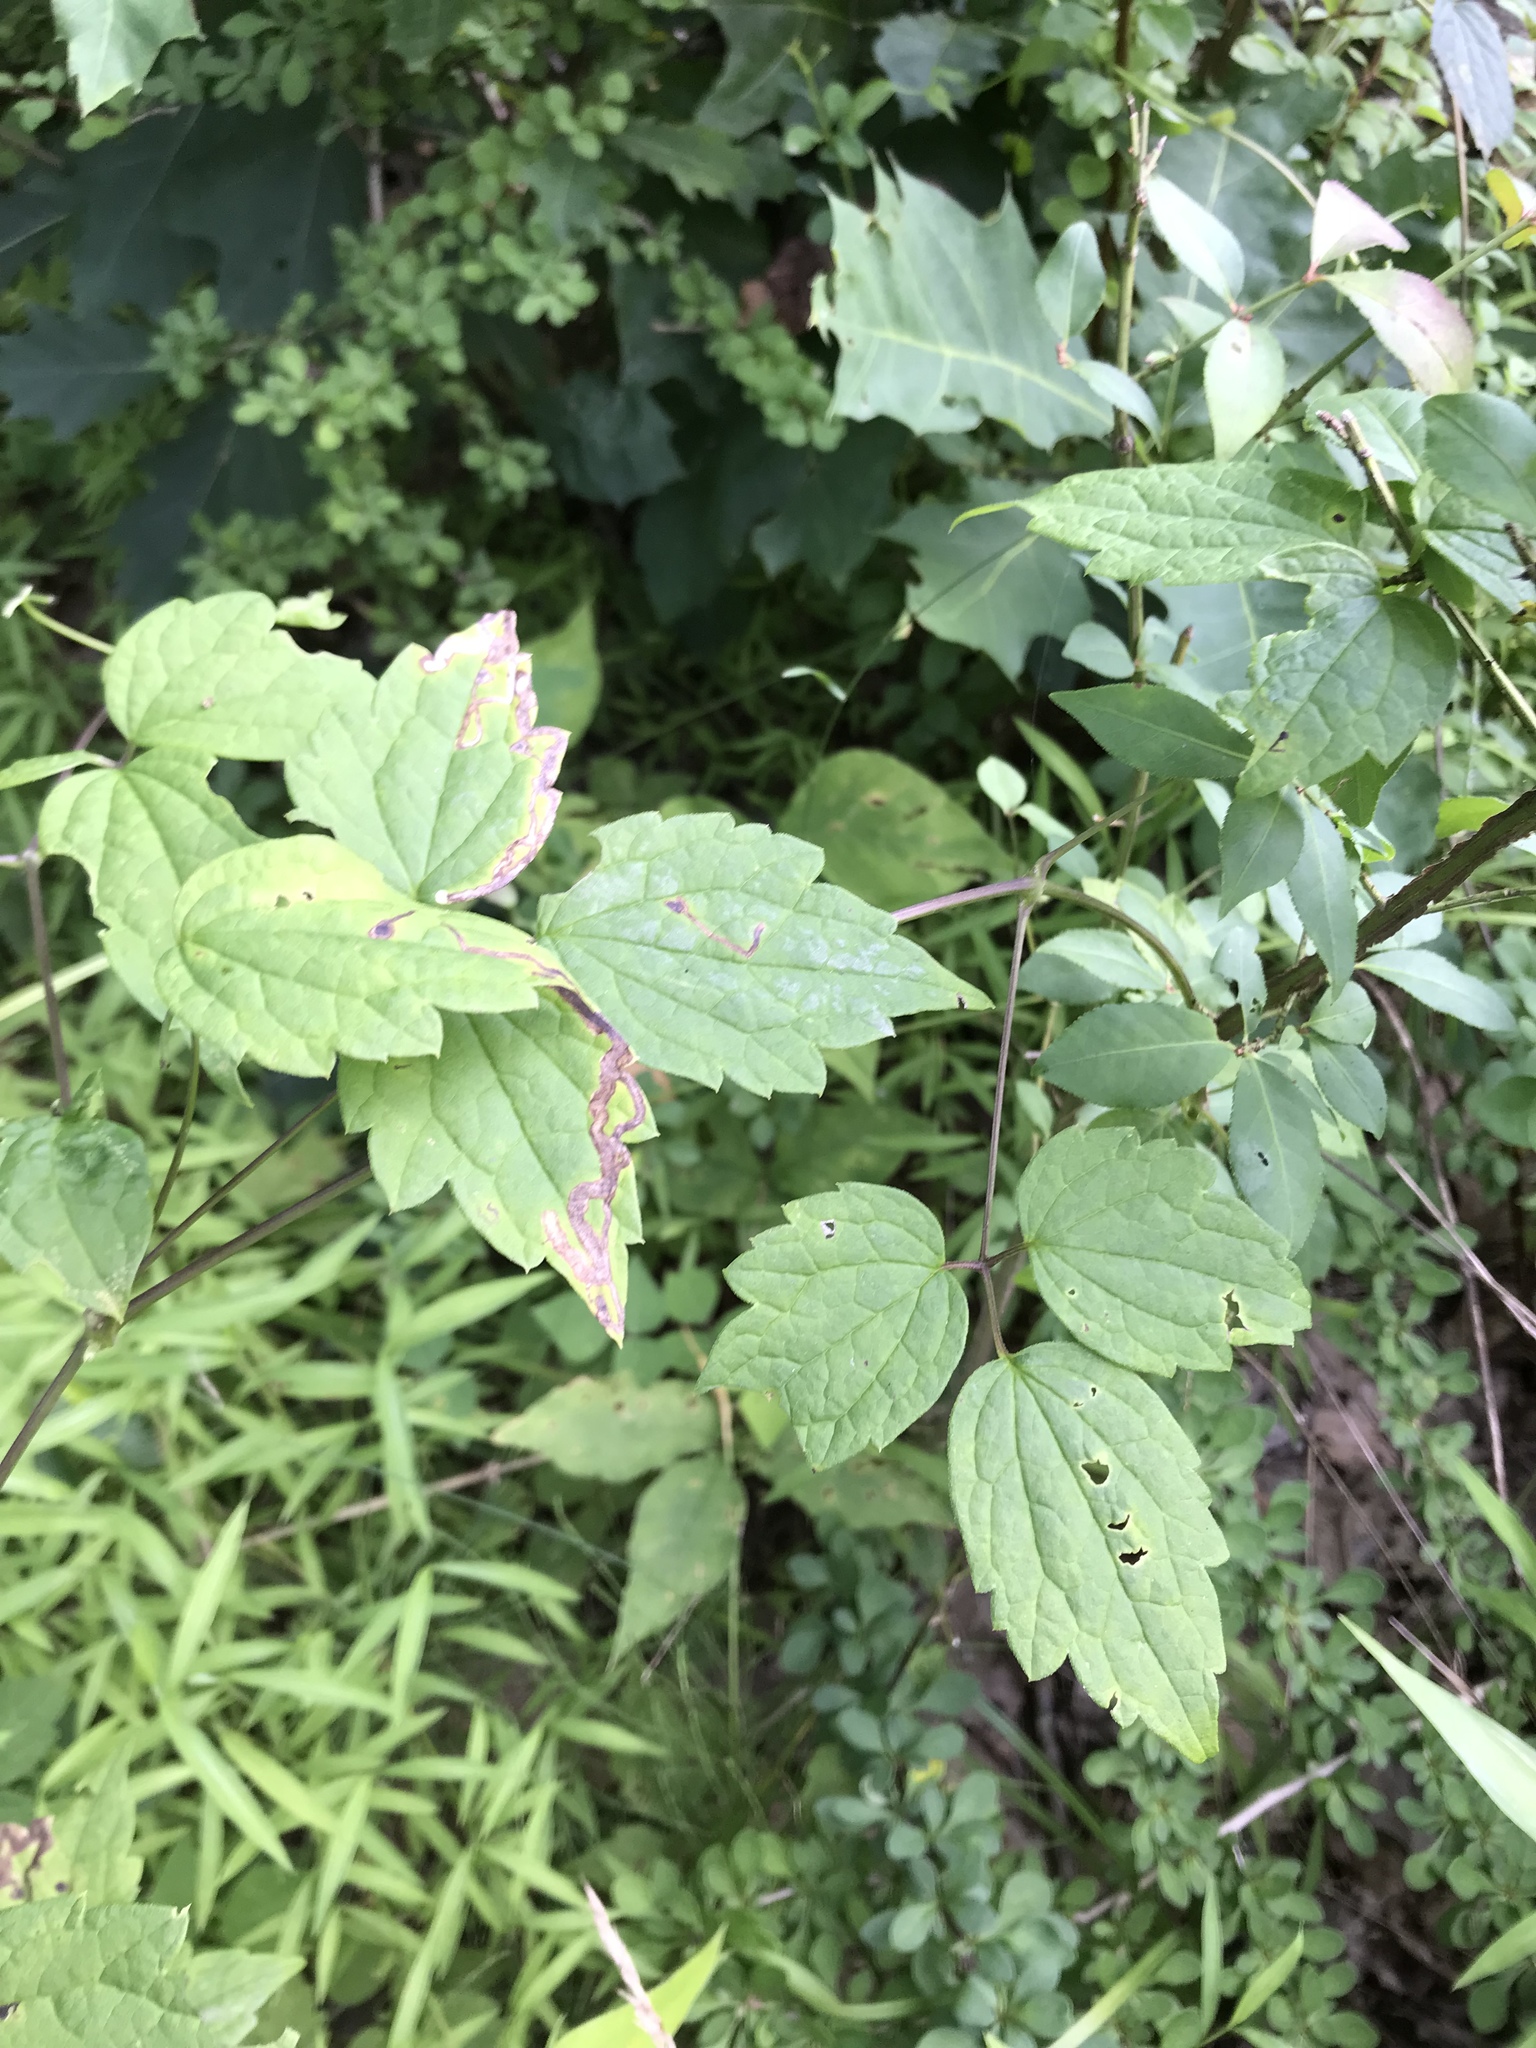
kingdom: Plantae
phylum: Tracheophyta
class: Magnoliopsida
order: Ranunculales
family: Ranunculaceae
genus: Clematis
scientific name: Clematis virginiana
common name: Virgin's-bower
